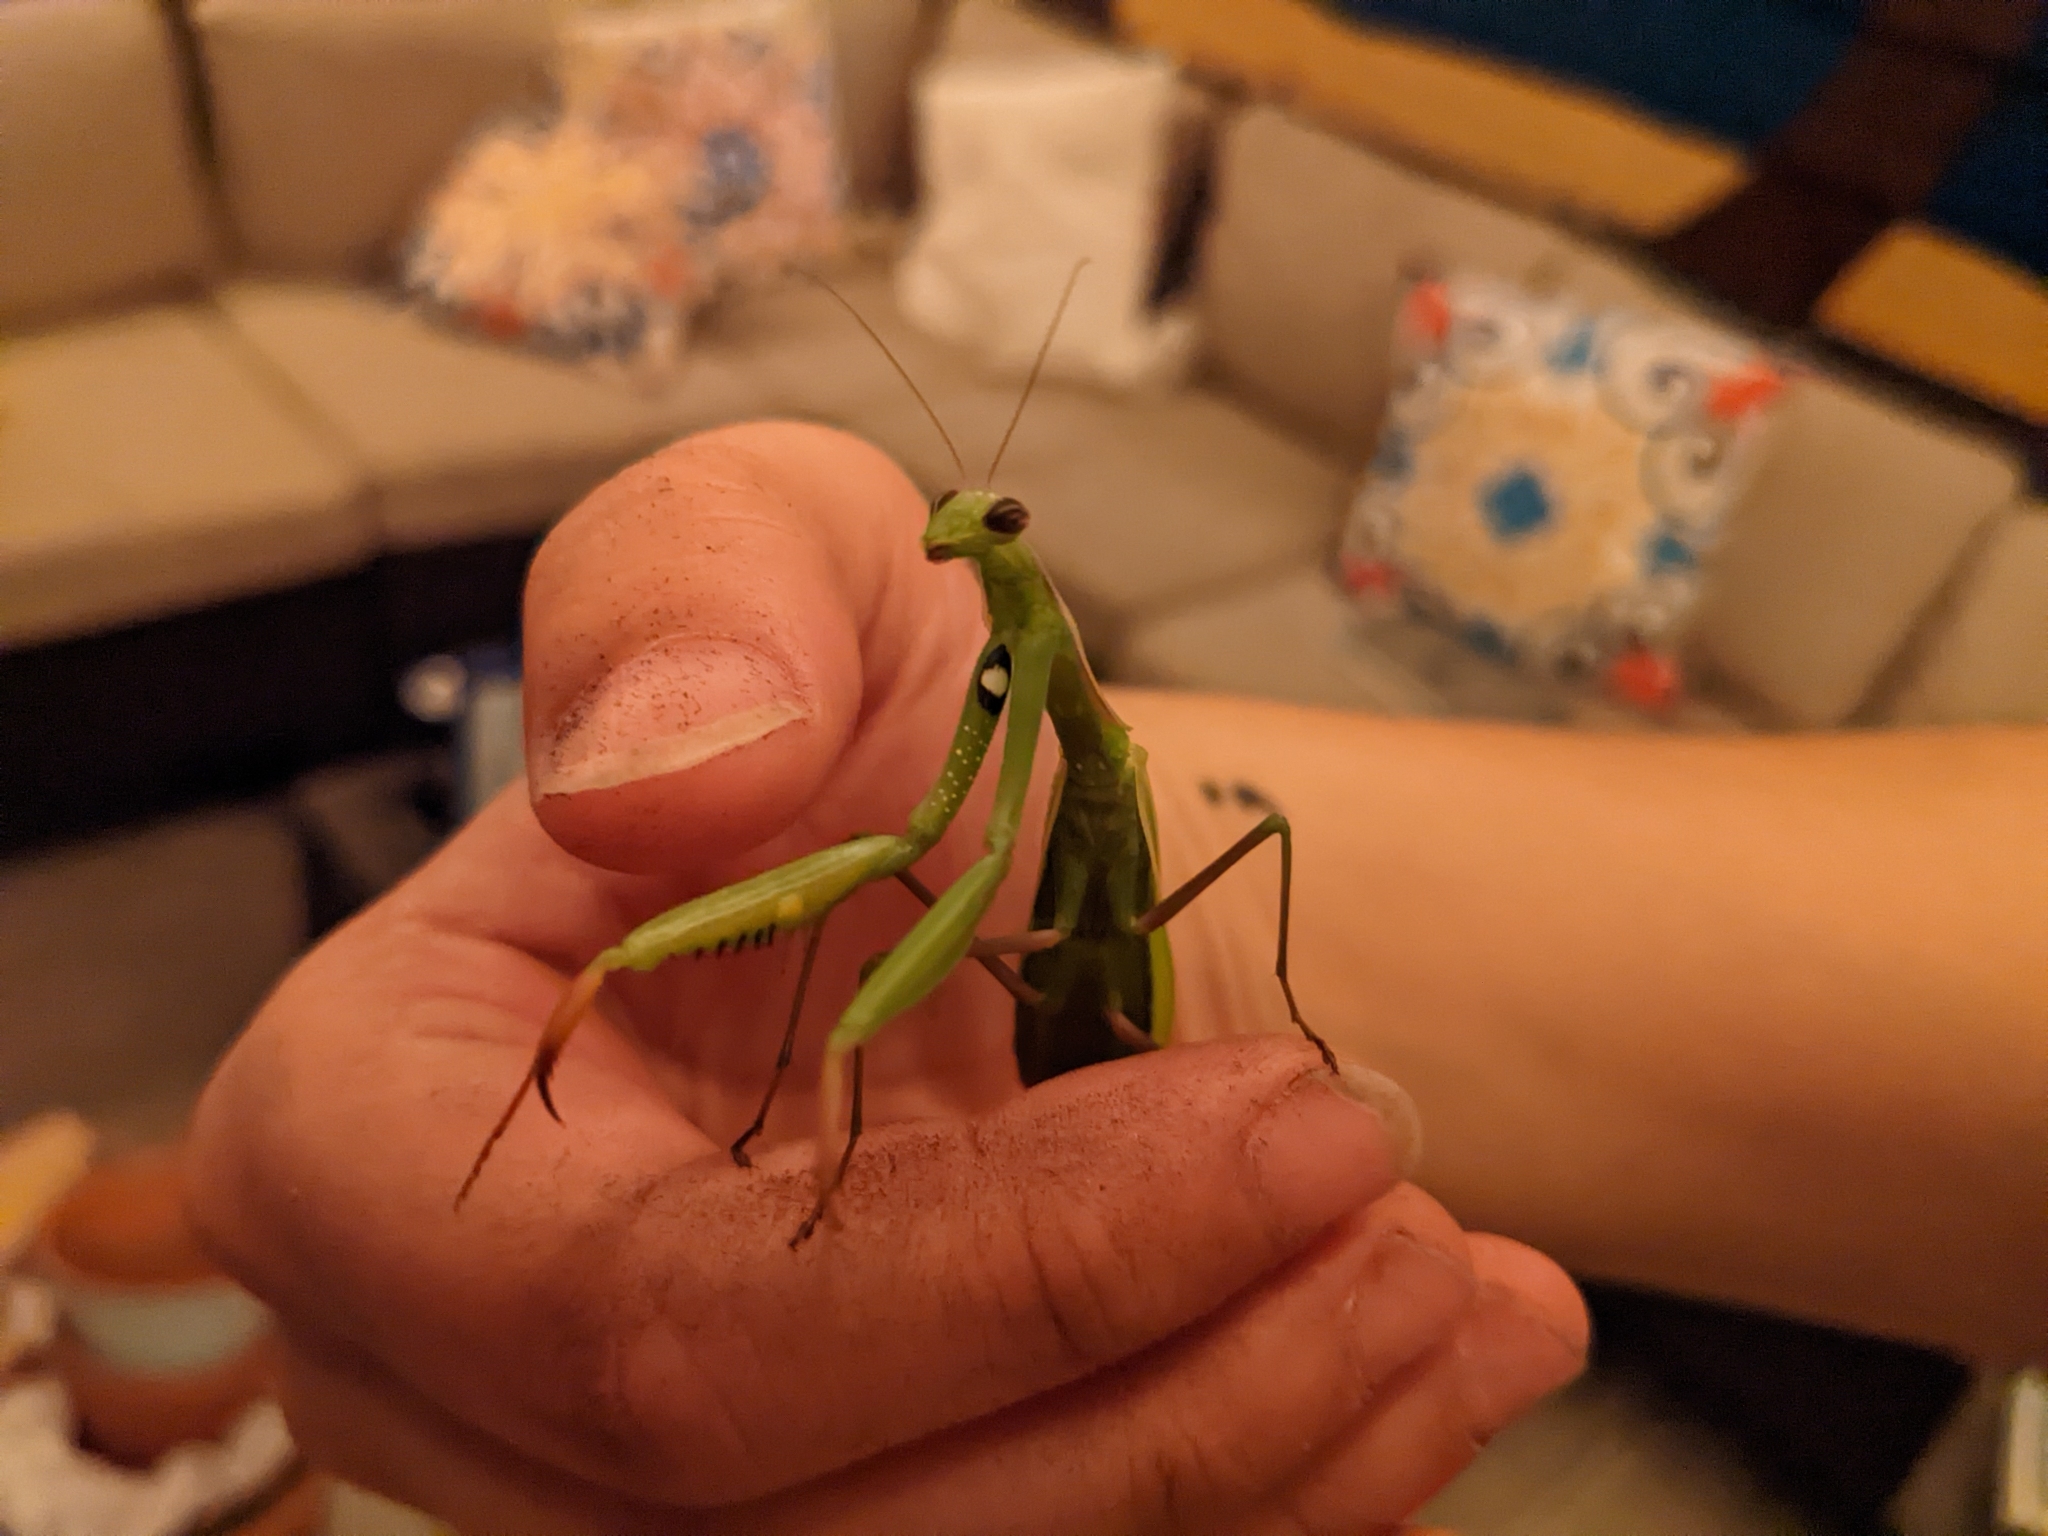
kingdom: Animalia
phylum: Arthropoda
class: Insecta
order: Mantodea
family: Mantidae
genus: Mantis
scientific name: Mantis religiosa
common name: Praying mantis
